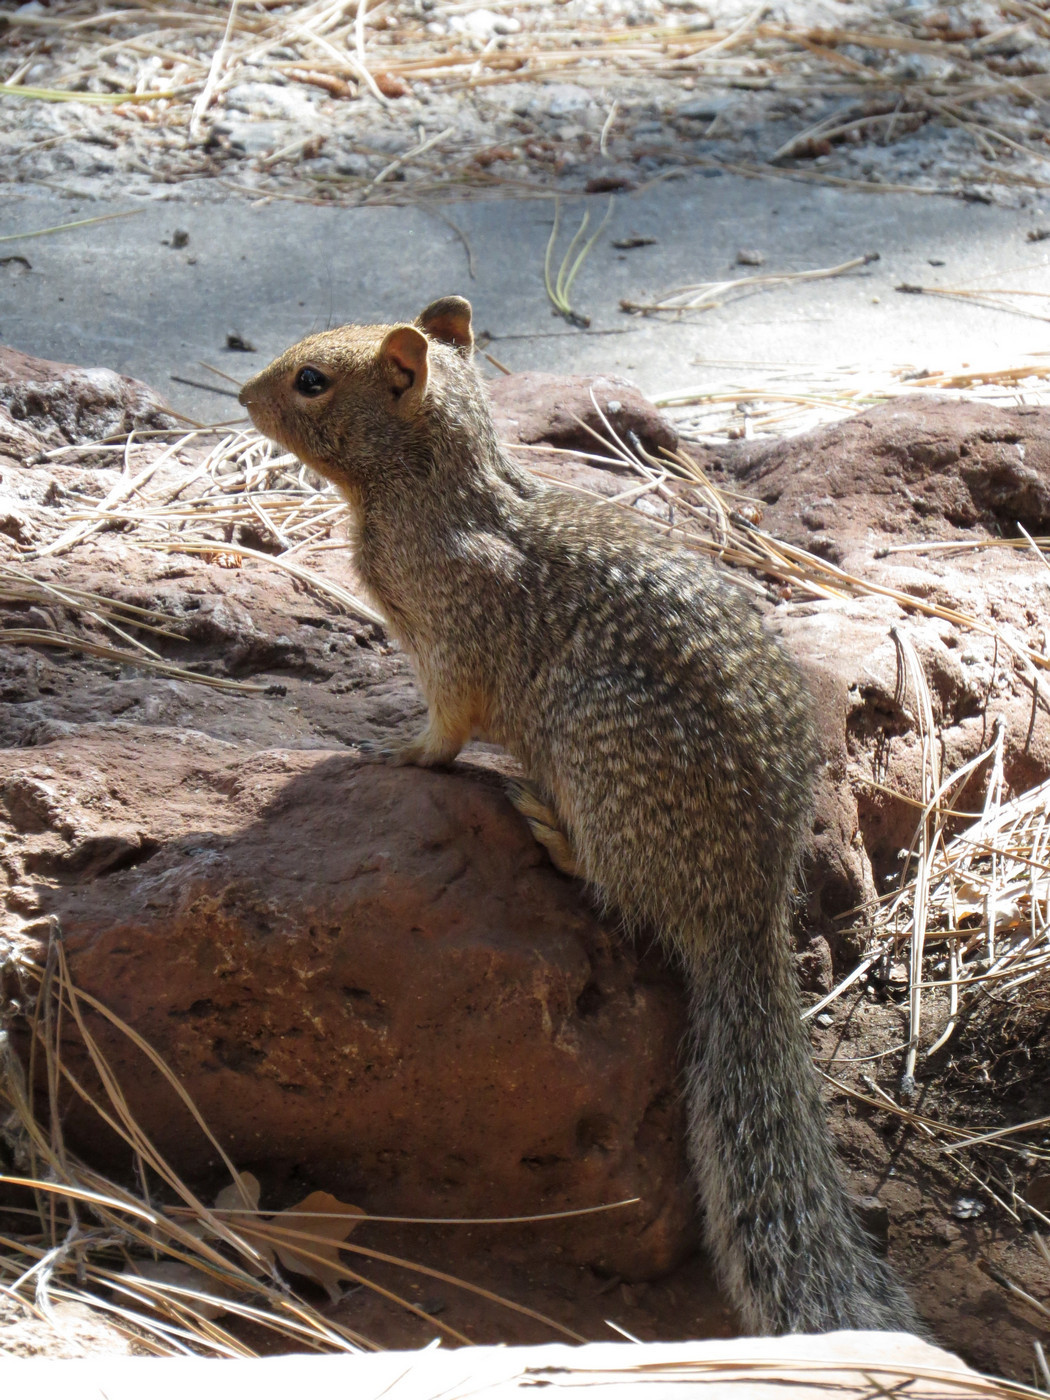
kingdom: Animalia
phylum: Chordata
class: Mammalia
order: Rodentia
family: Sciuridae
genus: Otospermophilus
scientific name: Otospermophilus variegatus
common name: Rock squirrel
